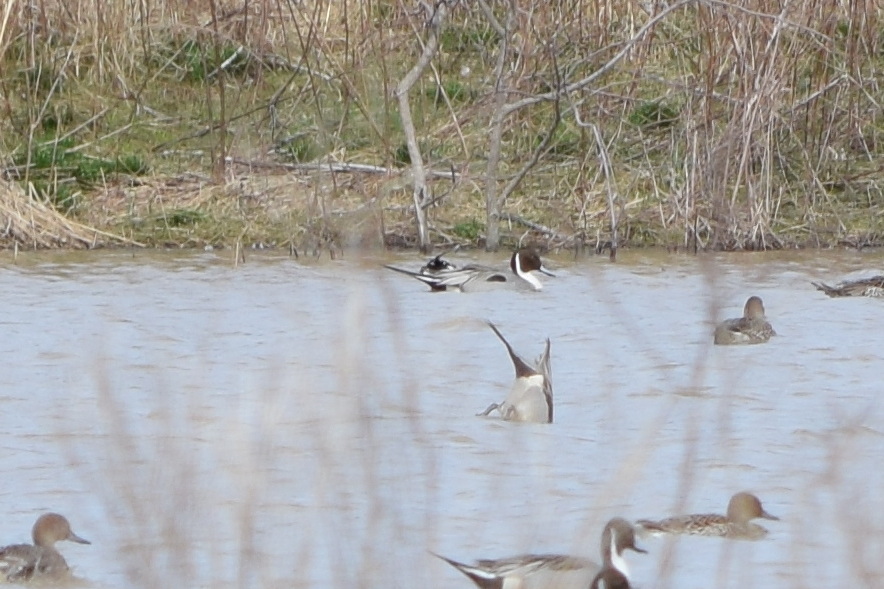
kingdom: Animalia
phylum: Chordata
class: Aves
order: Anseriformes
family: Anatidae
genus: Anas
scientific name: Anas acuta
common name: Northern pintail
